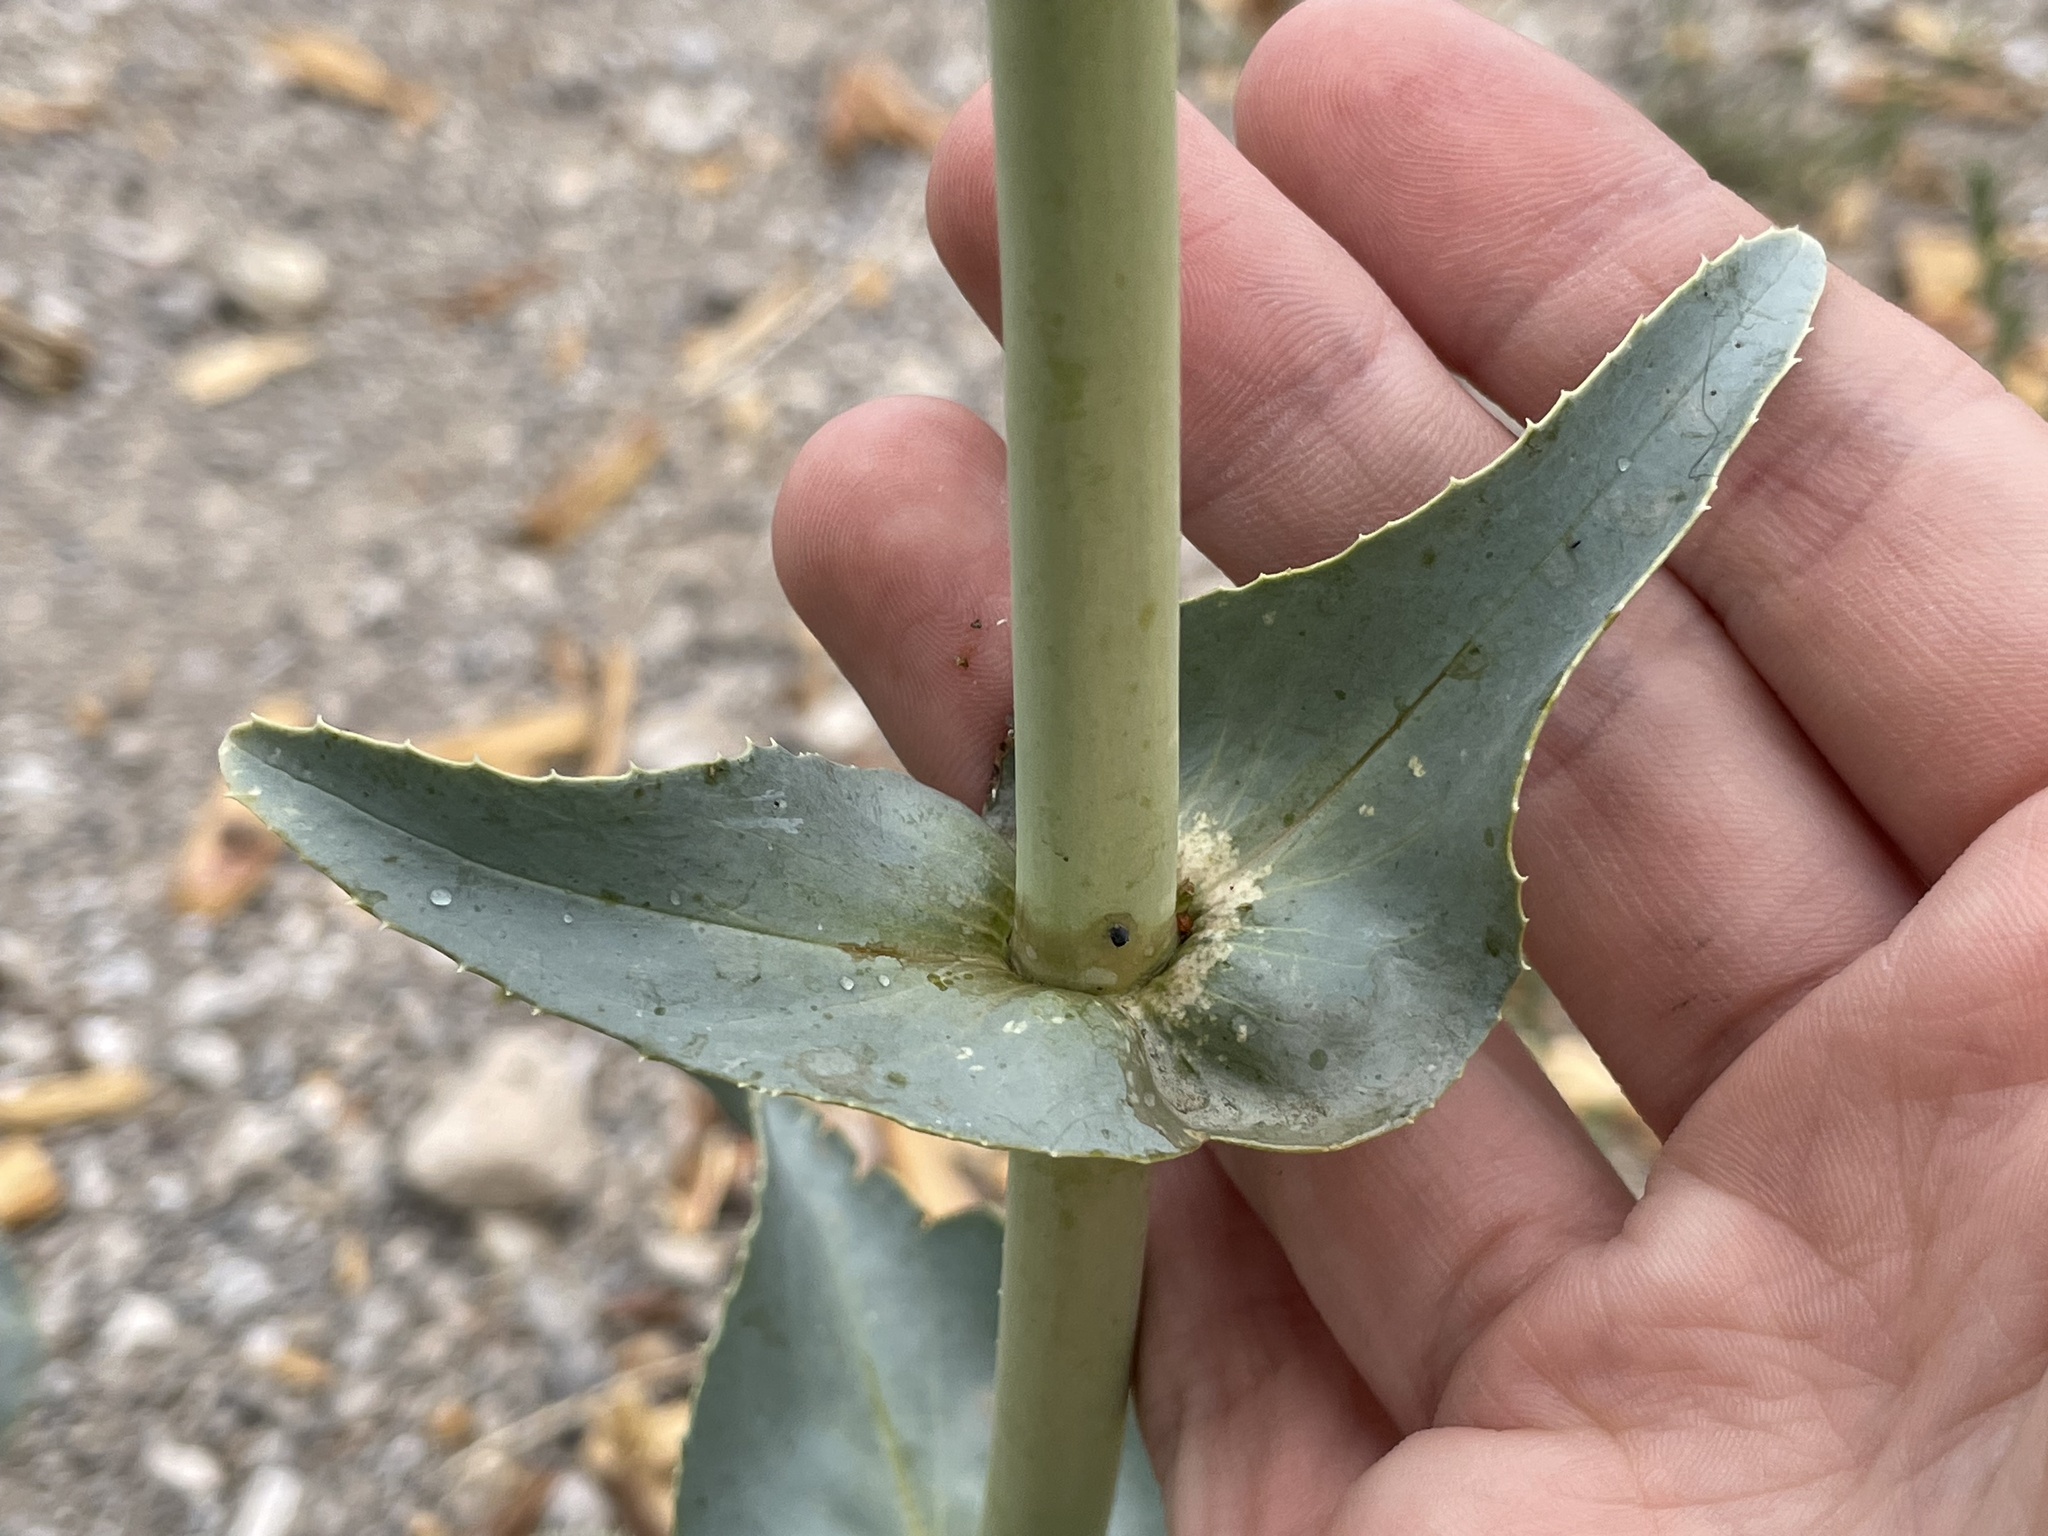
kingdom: Plantae
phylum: Tracheophyta
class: Magnoliopsida
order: Lamiales
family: Plantaginaceae
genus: Penstemon
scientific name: Penstemon palmeri
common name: Palmer penstemon
